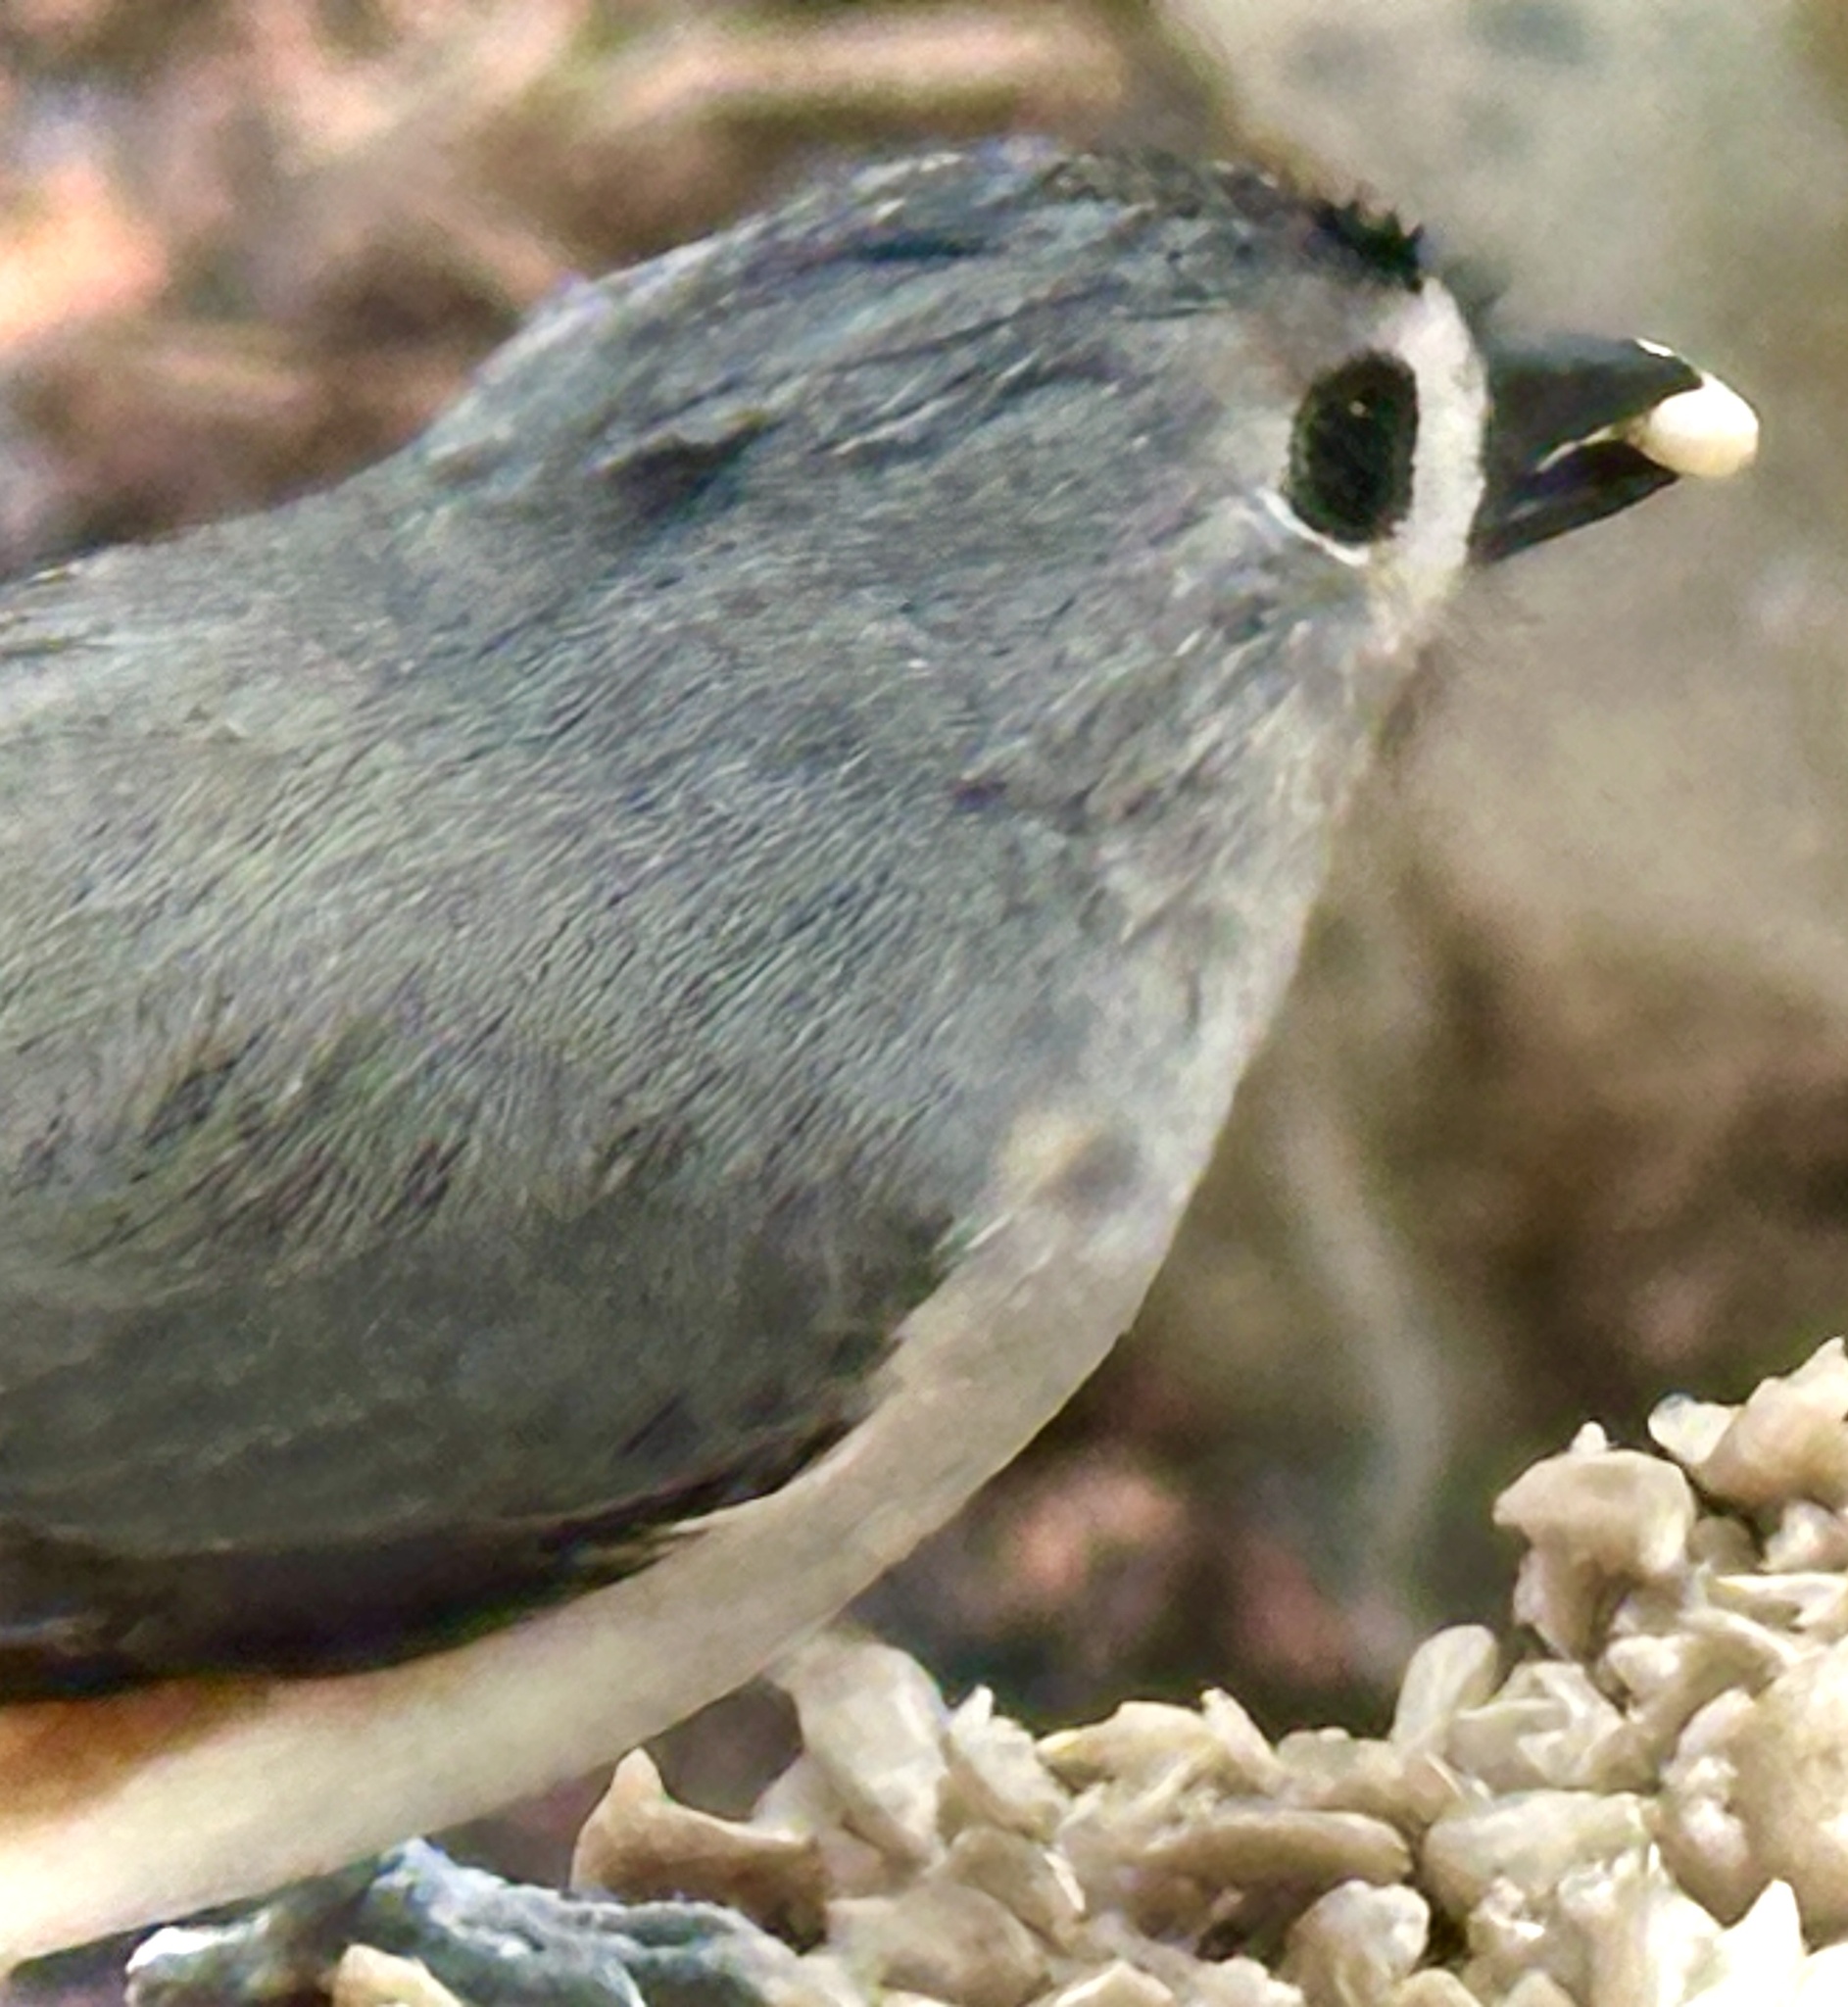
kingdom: Animalia
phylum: Chordata
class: Aves
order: Passeriformes
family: Paridae
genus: Baeolophus
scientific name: Baeolophus bicolor
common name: Tufted titmouse
